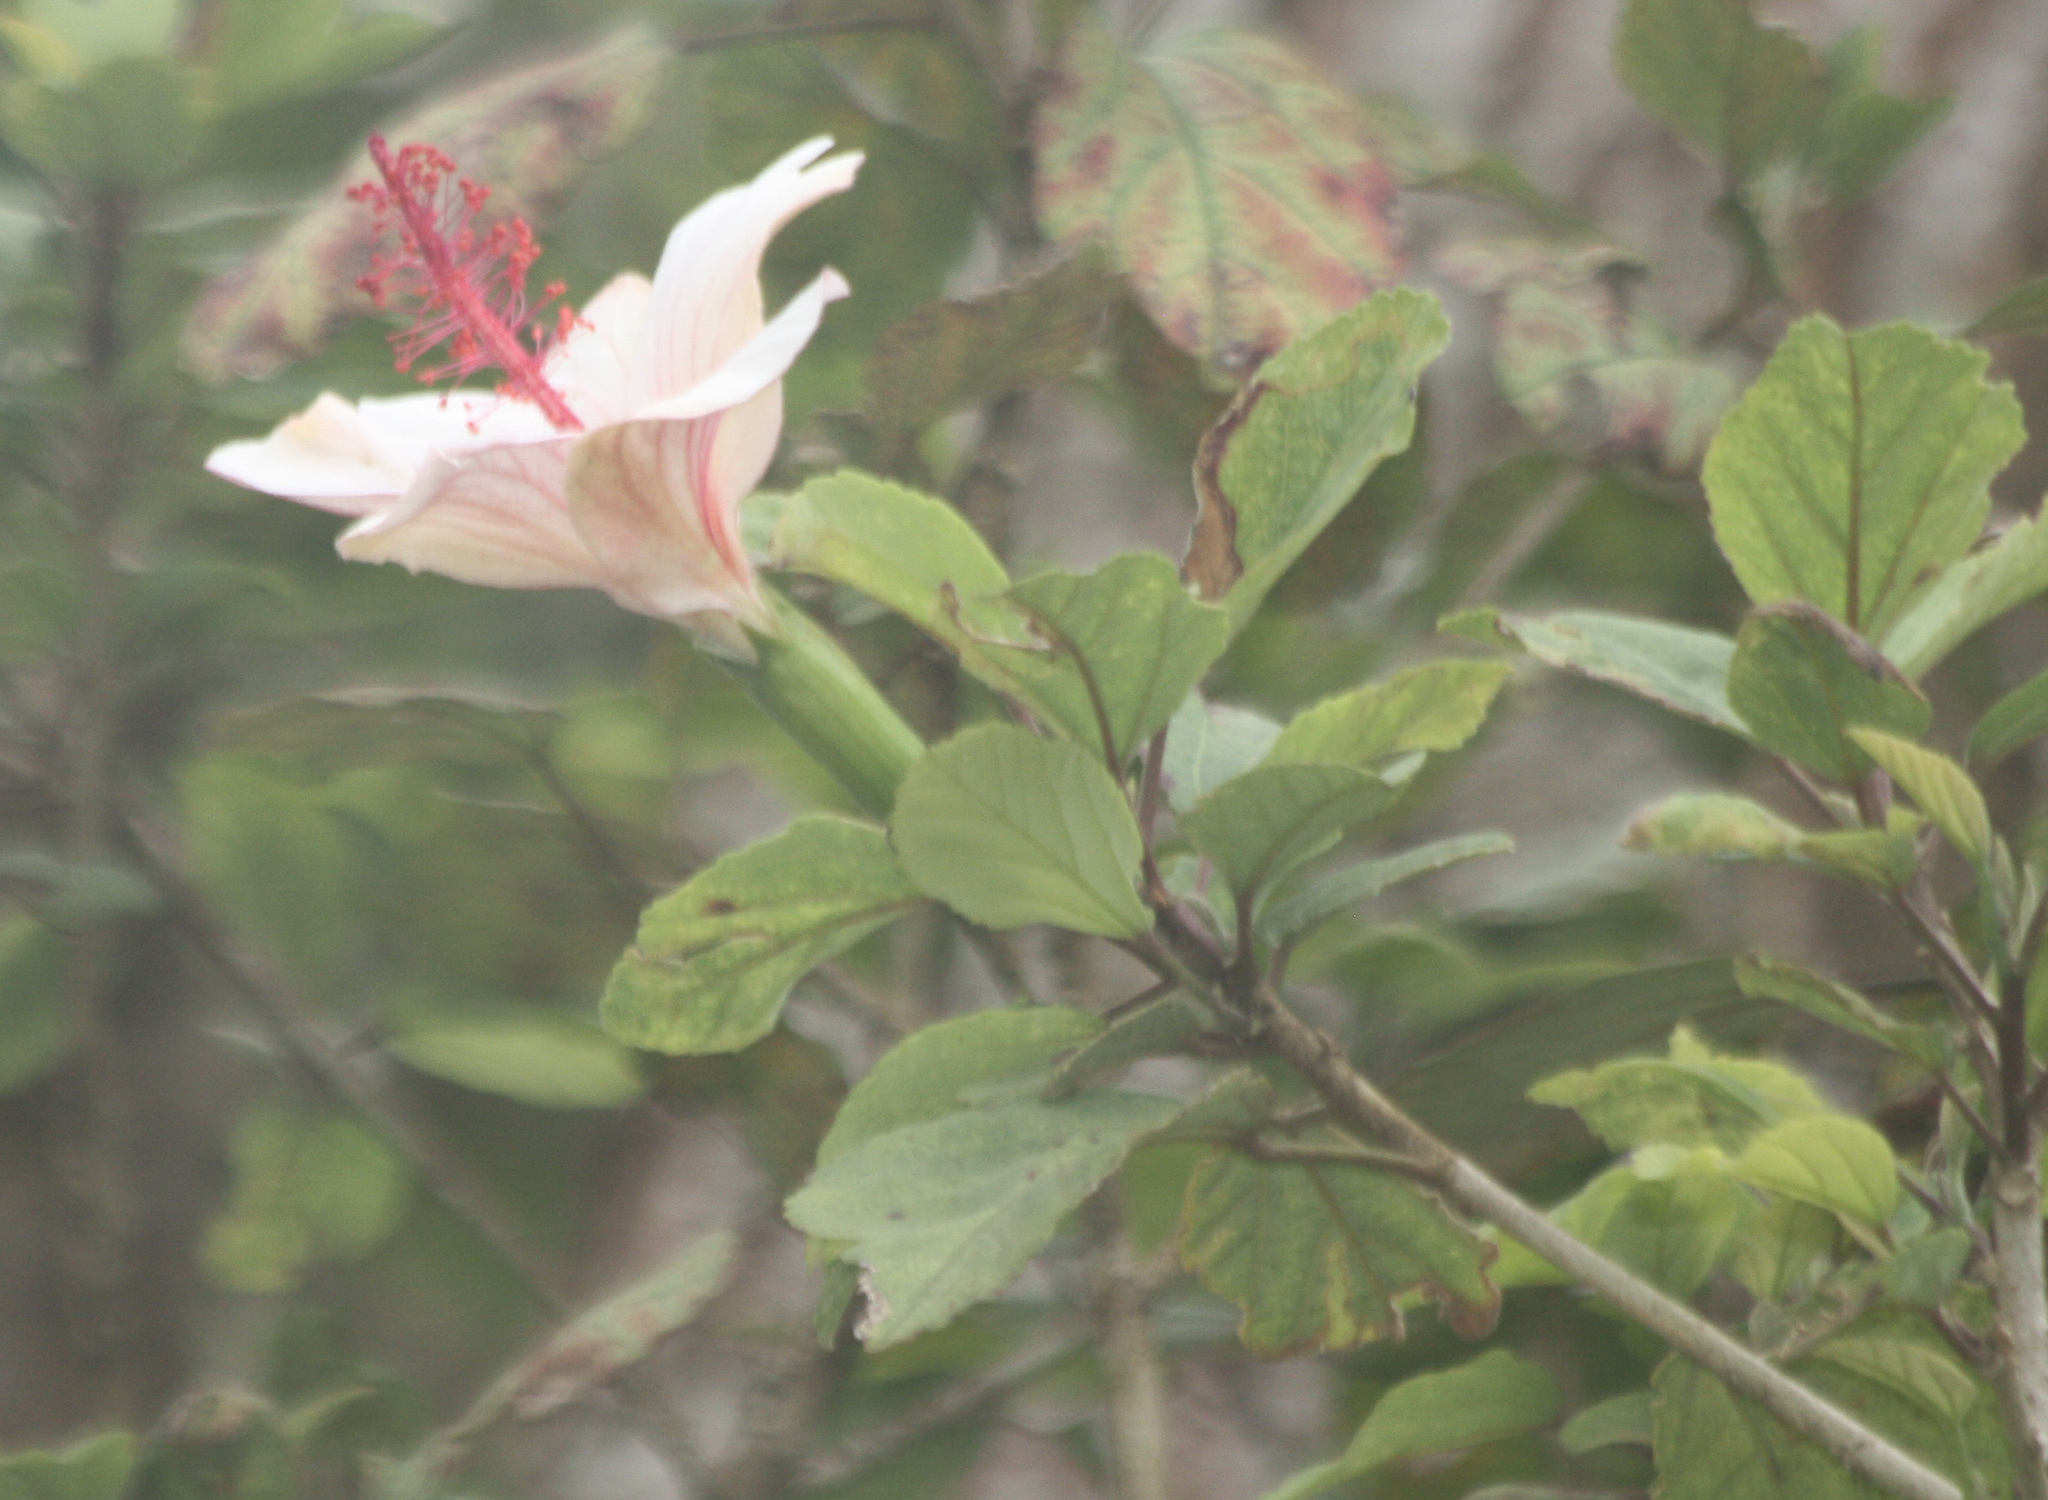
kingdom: Plantae
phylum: Tracheophyta
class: Magnoliopsida
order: Malvales
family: Malvaceae
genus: Hibiscus
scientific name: Hibiscus waimeae
